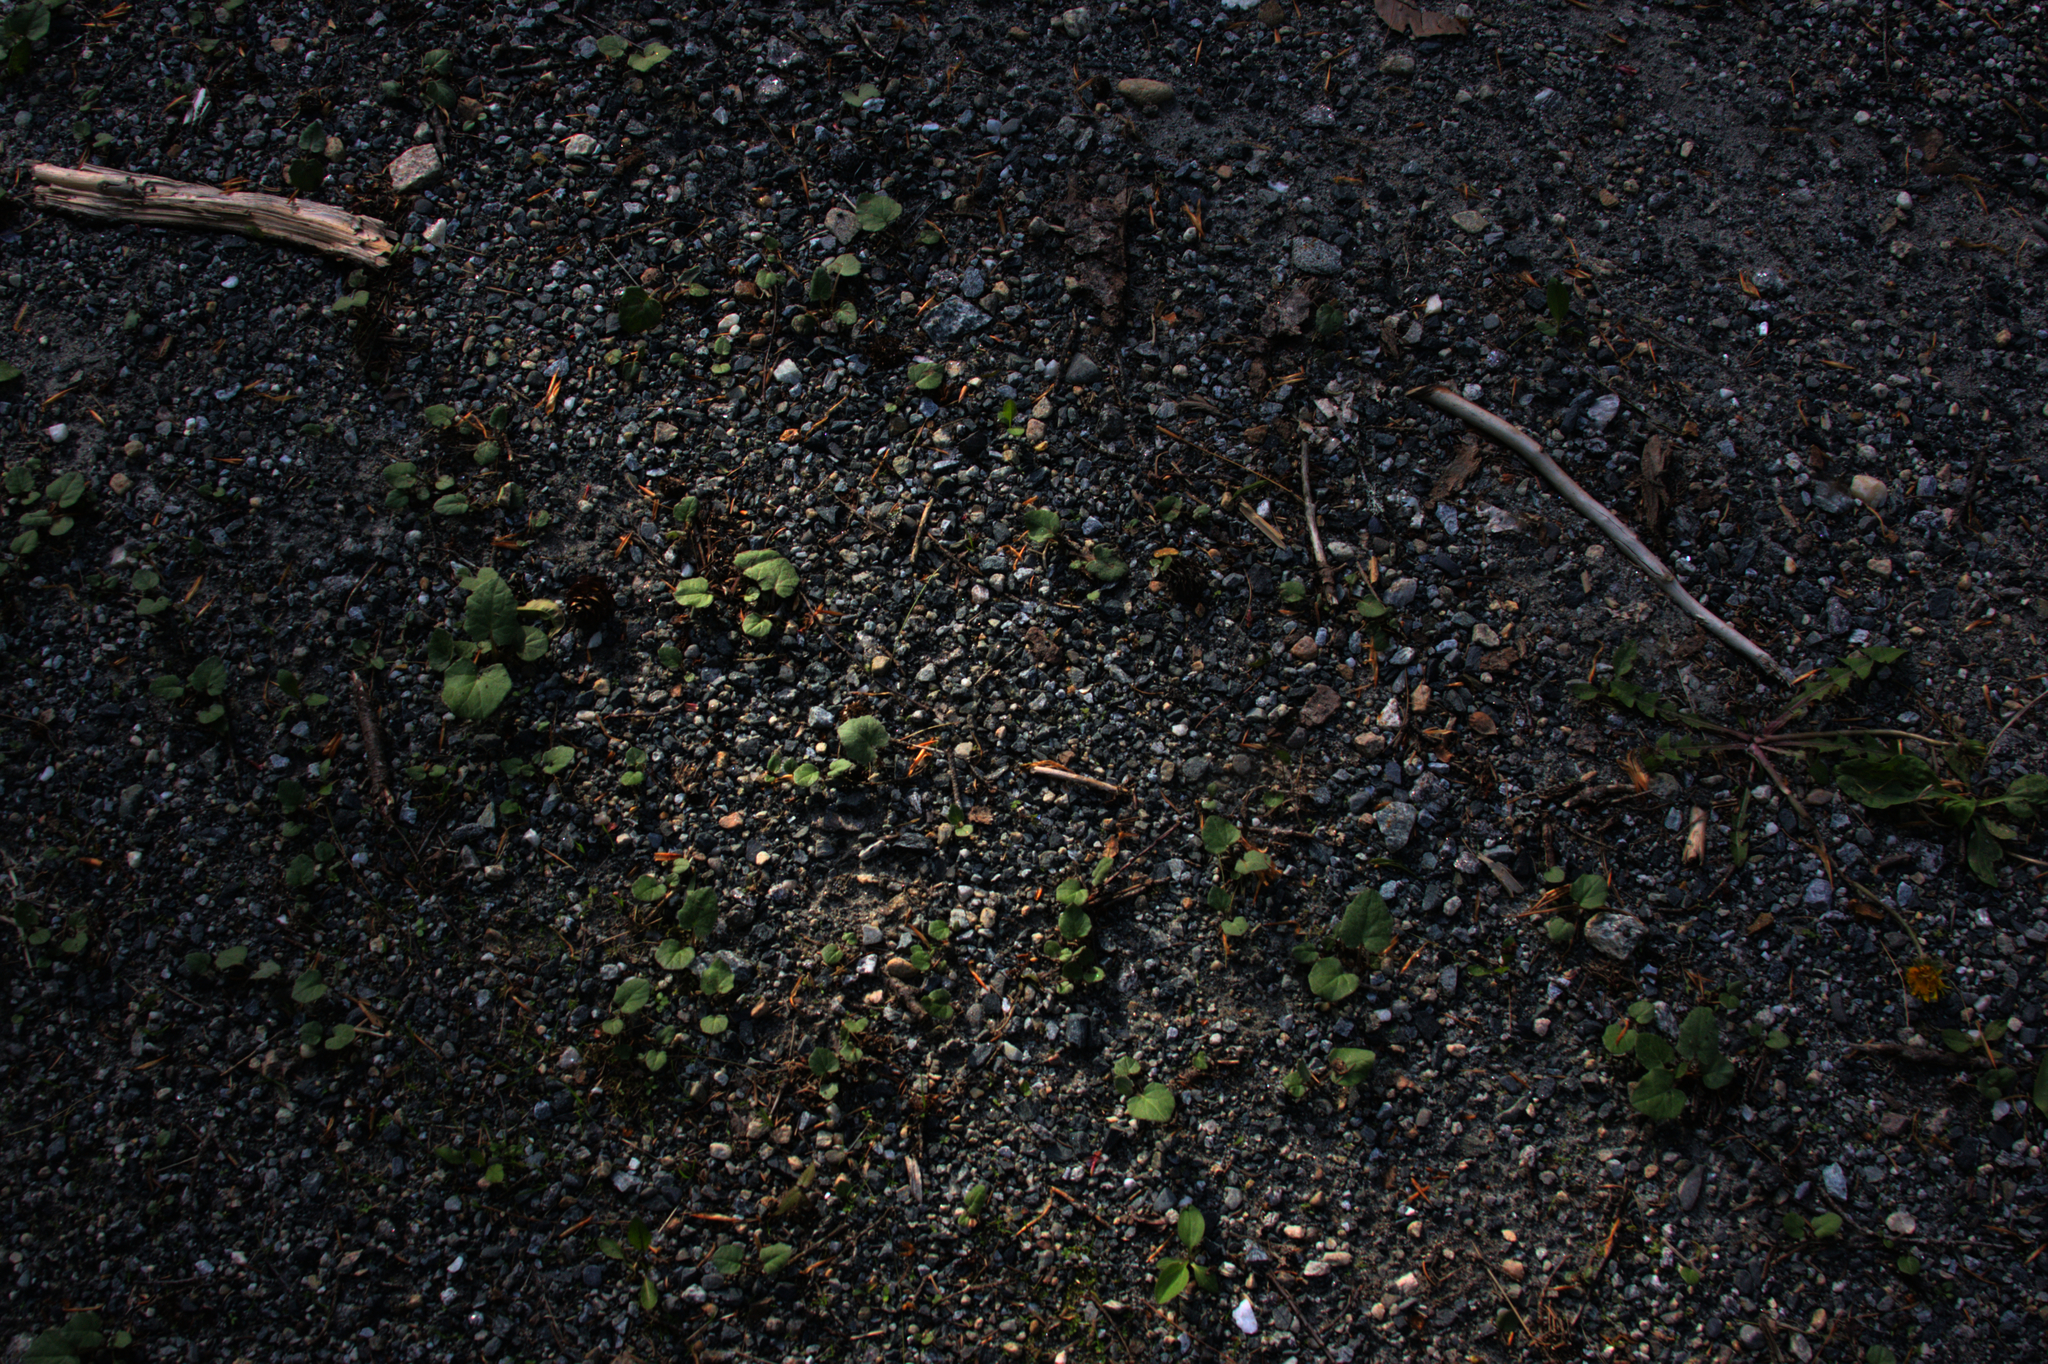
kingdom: Plantae
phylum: Tracheophyta
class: Magnoliopsida
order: Asterales
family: Asteraceae
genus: Tussilago
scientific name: Tussilago farfara
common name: Coltsfoot
